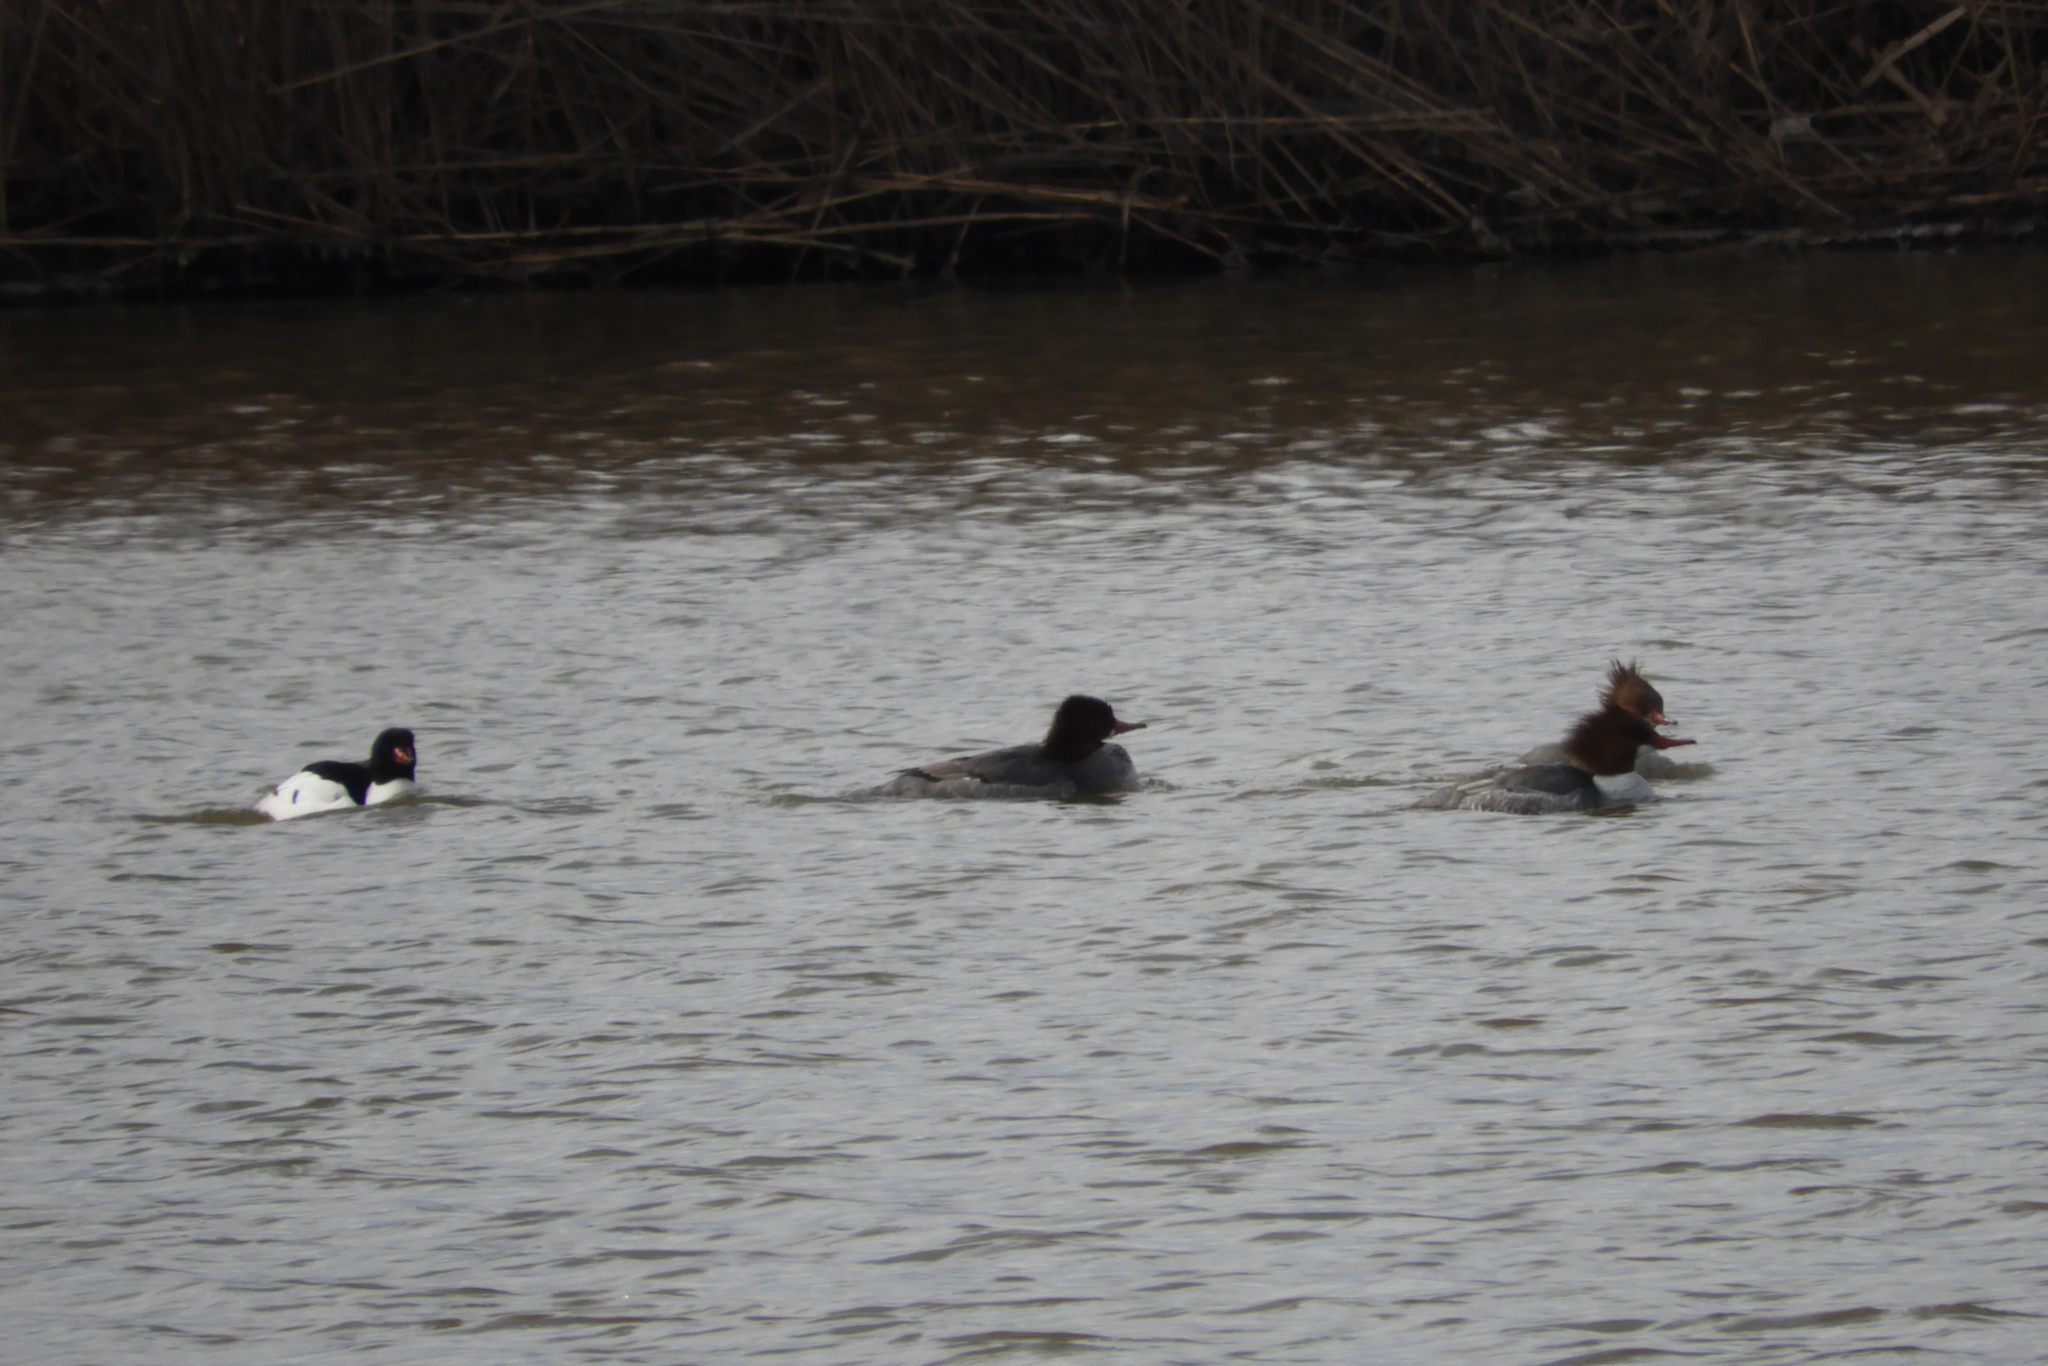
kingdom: Animalia
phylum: Chordata
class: Aves
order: Anseriformes
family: Anatidae
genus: Mergus
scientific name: Mergus merganser
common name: Common merganser
